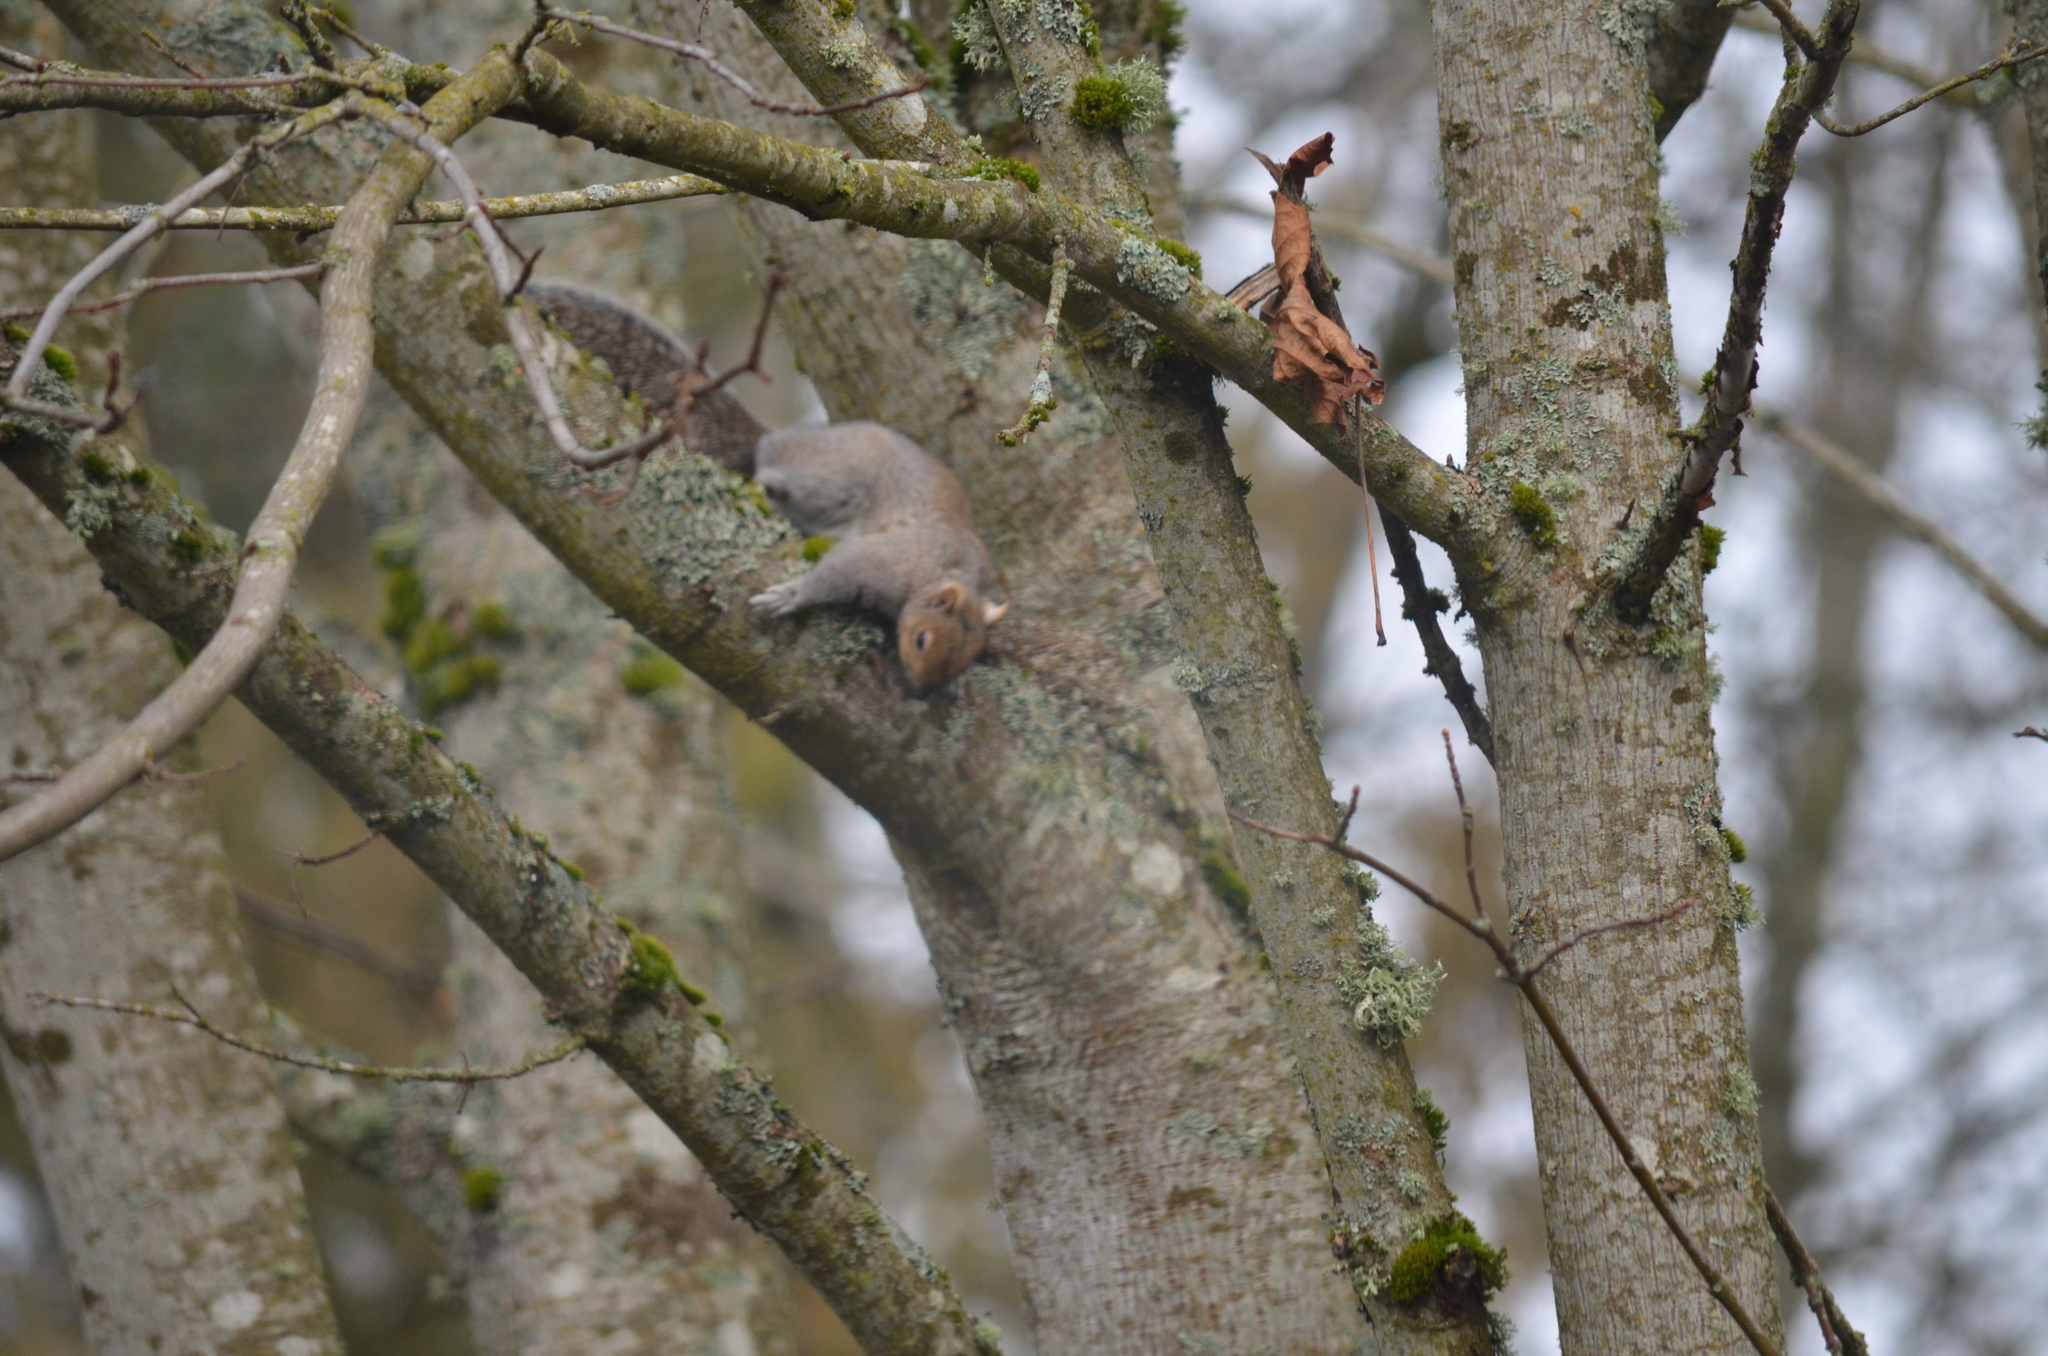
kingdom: Animalia
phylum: Chordata
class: Mammalia
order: Rodentia
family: Sciuridae
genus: Sciurus
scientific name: Sciurus carolinensis
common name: Eastern gray squirrel
